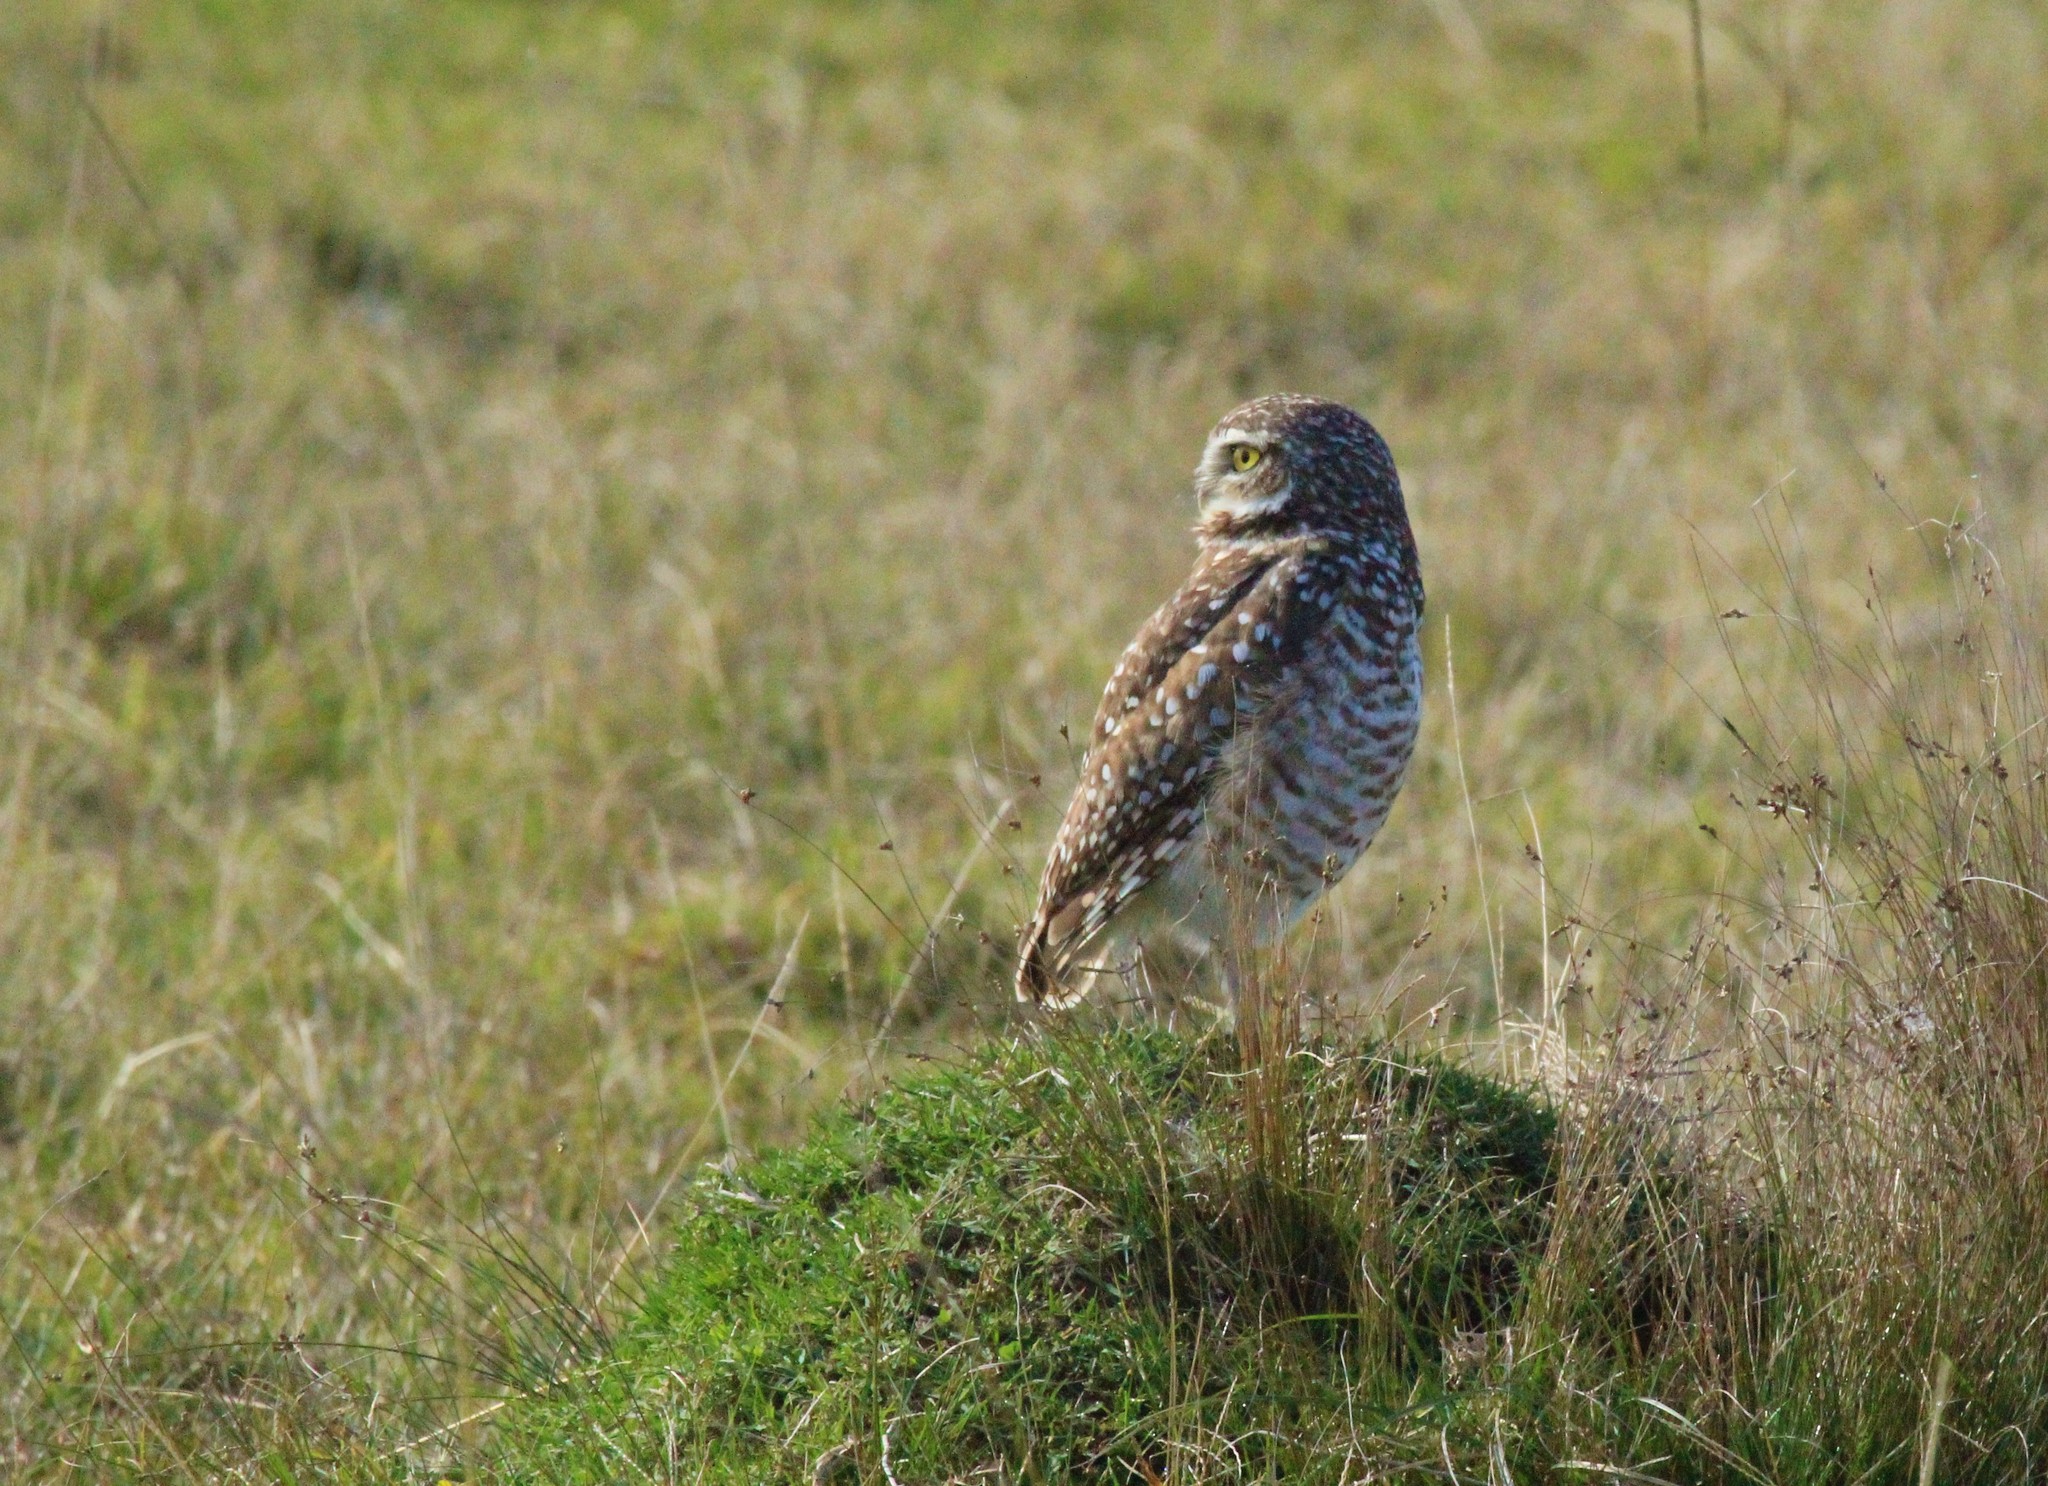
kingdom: Animalia
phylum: Chordata
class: Aves
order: Strigiformes
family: Strigidae
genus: Athene
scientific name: Athene cunicularia
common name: Burrowing owl
